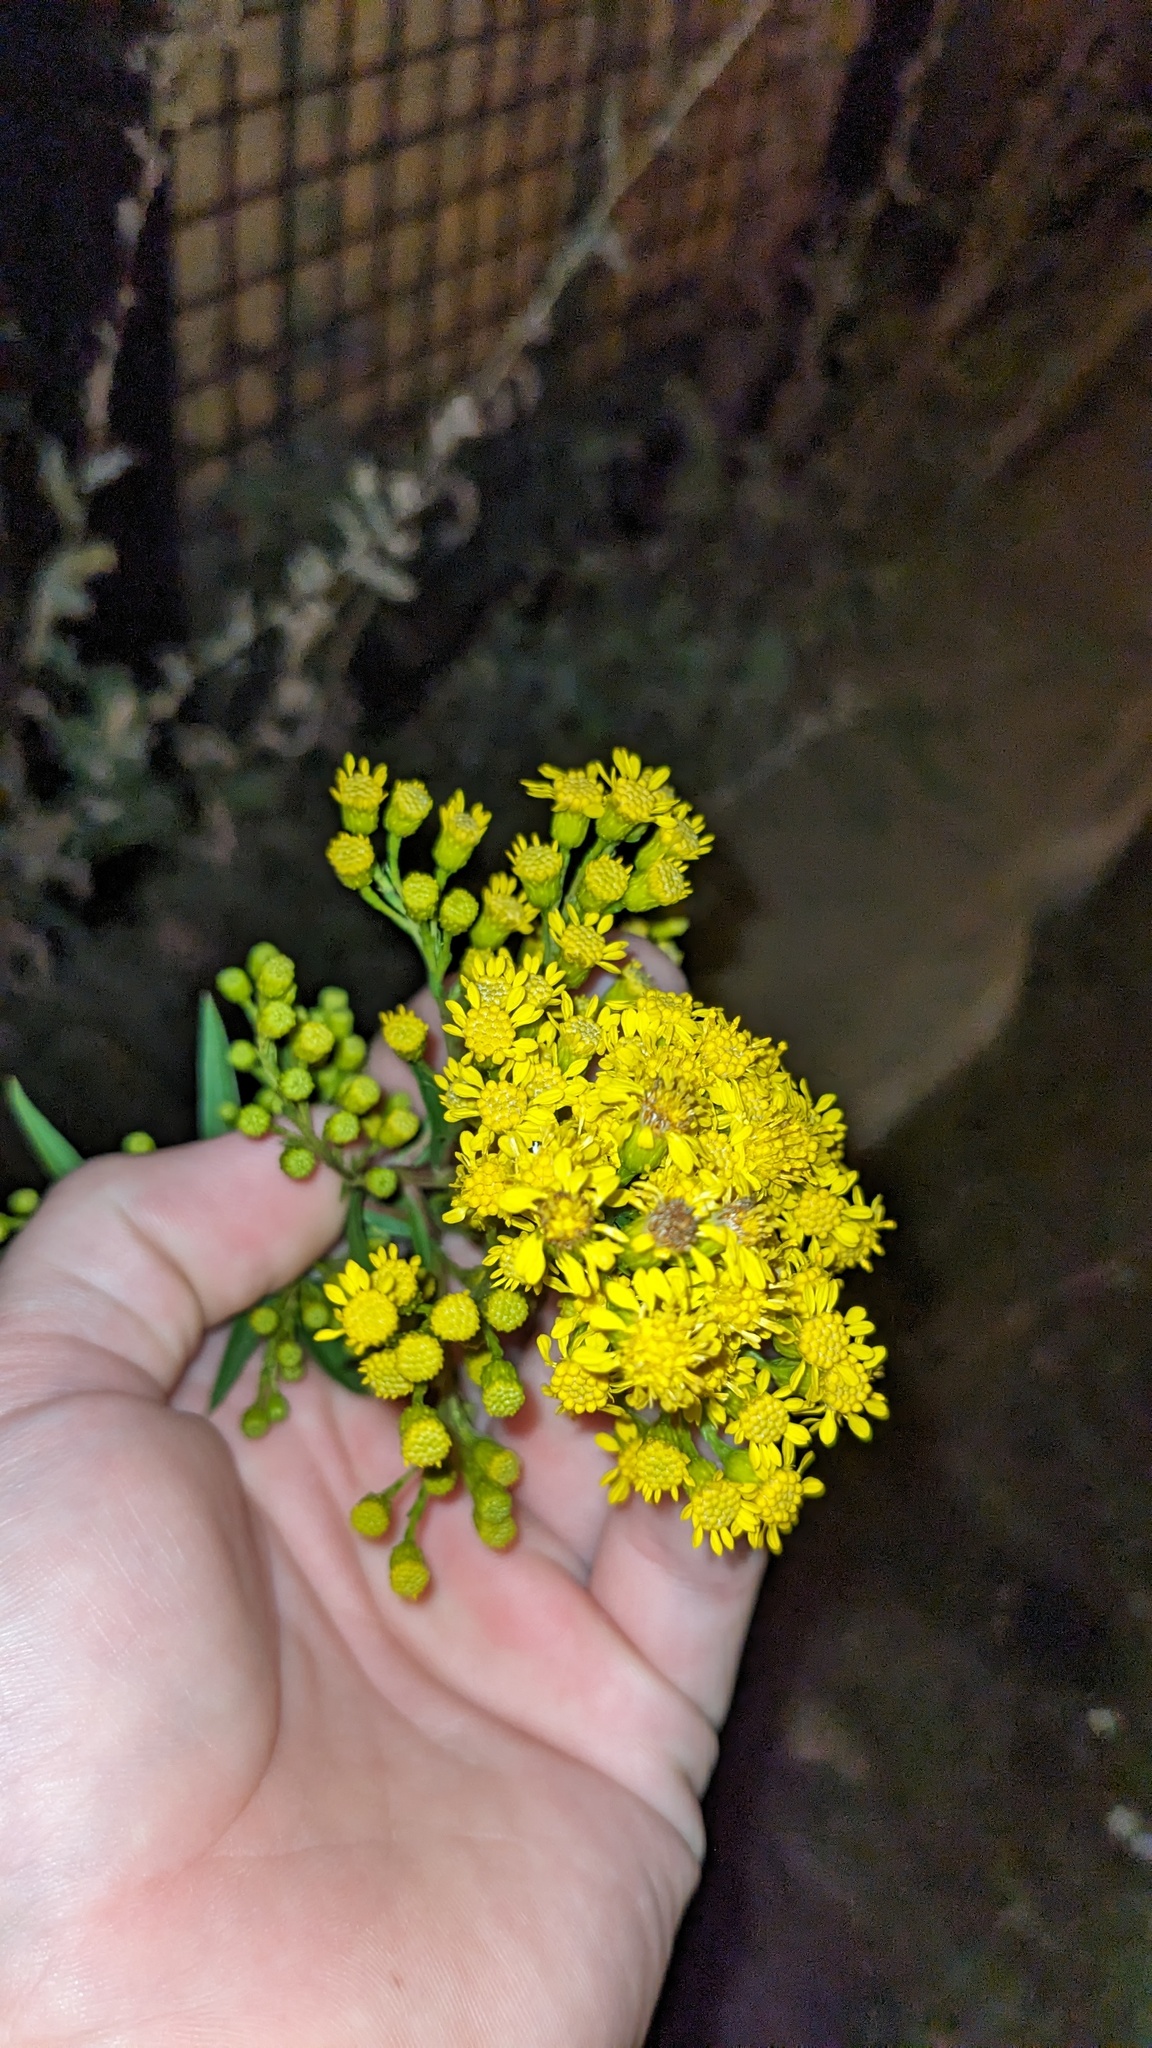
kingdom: Plantae
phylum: Tracheophyta
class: Magnoliopsida
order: Asterales
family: Asteraceae
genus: Solidago
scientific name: Solidago sempervirens
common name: Salt-marsh goldenrod
